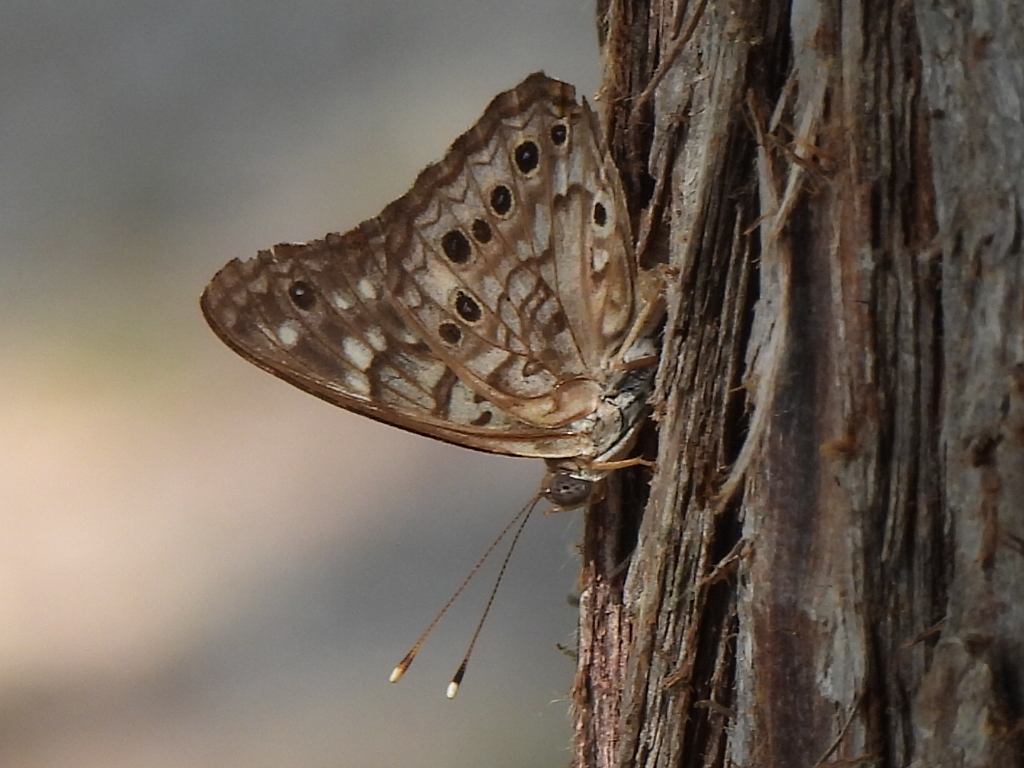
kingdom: Animalia
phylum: Arthropoda
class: Insecta
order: Lepidoptera
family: Nymphalidae
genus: Asterocampa
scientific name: Asterocampa celtis
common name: Hackberry emperor
